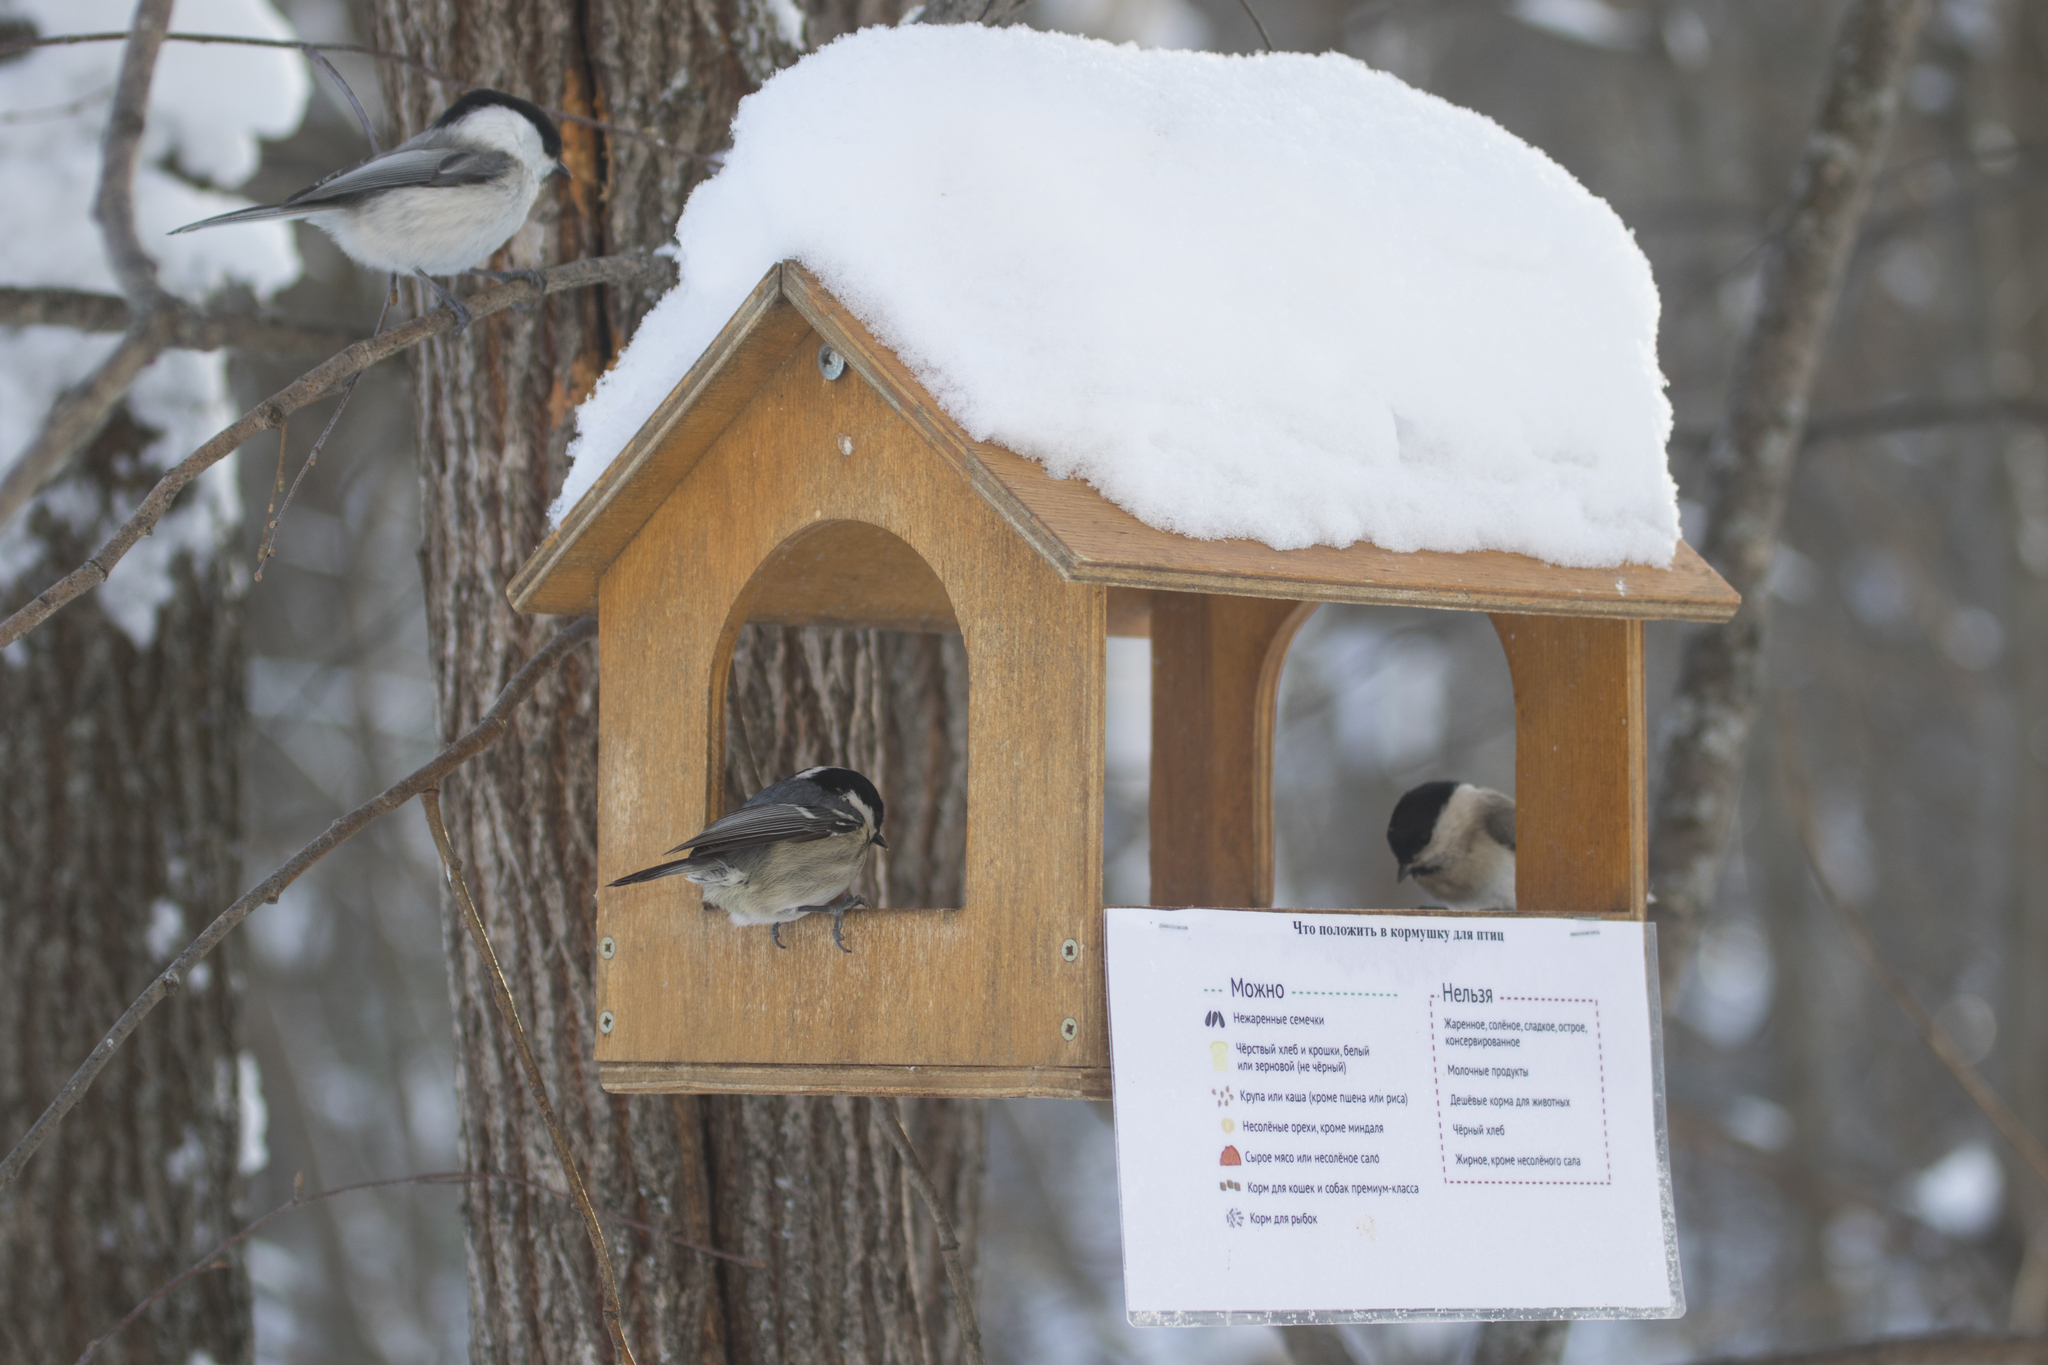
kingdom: Animalia
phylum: Chordata
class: Aves
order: Passeriformes
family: Paridae
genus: Periparus
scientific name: Periparus ater
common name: Coal tit
